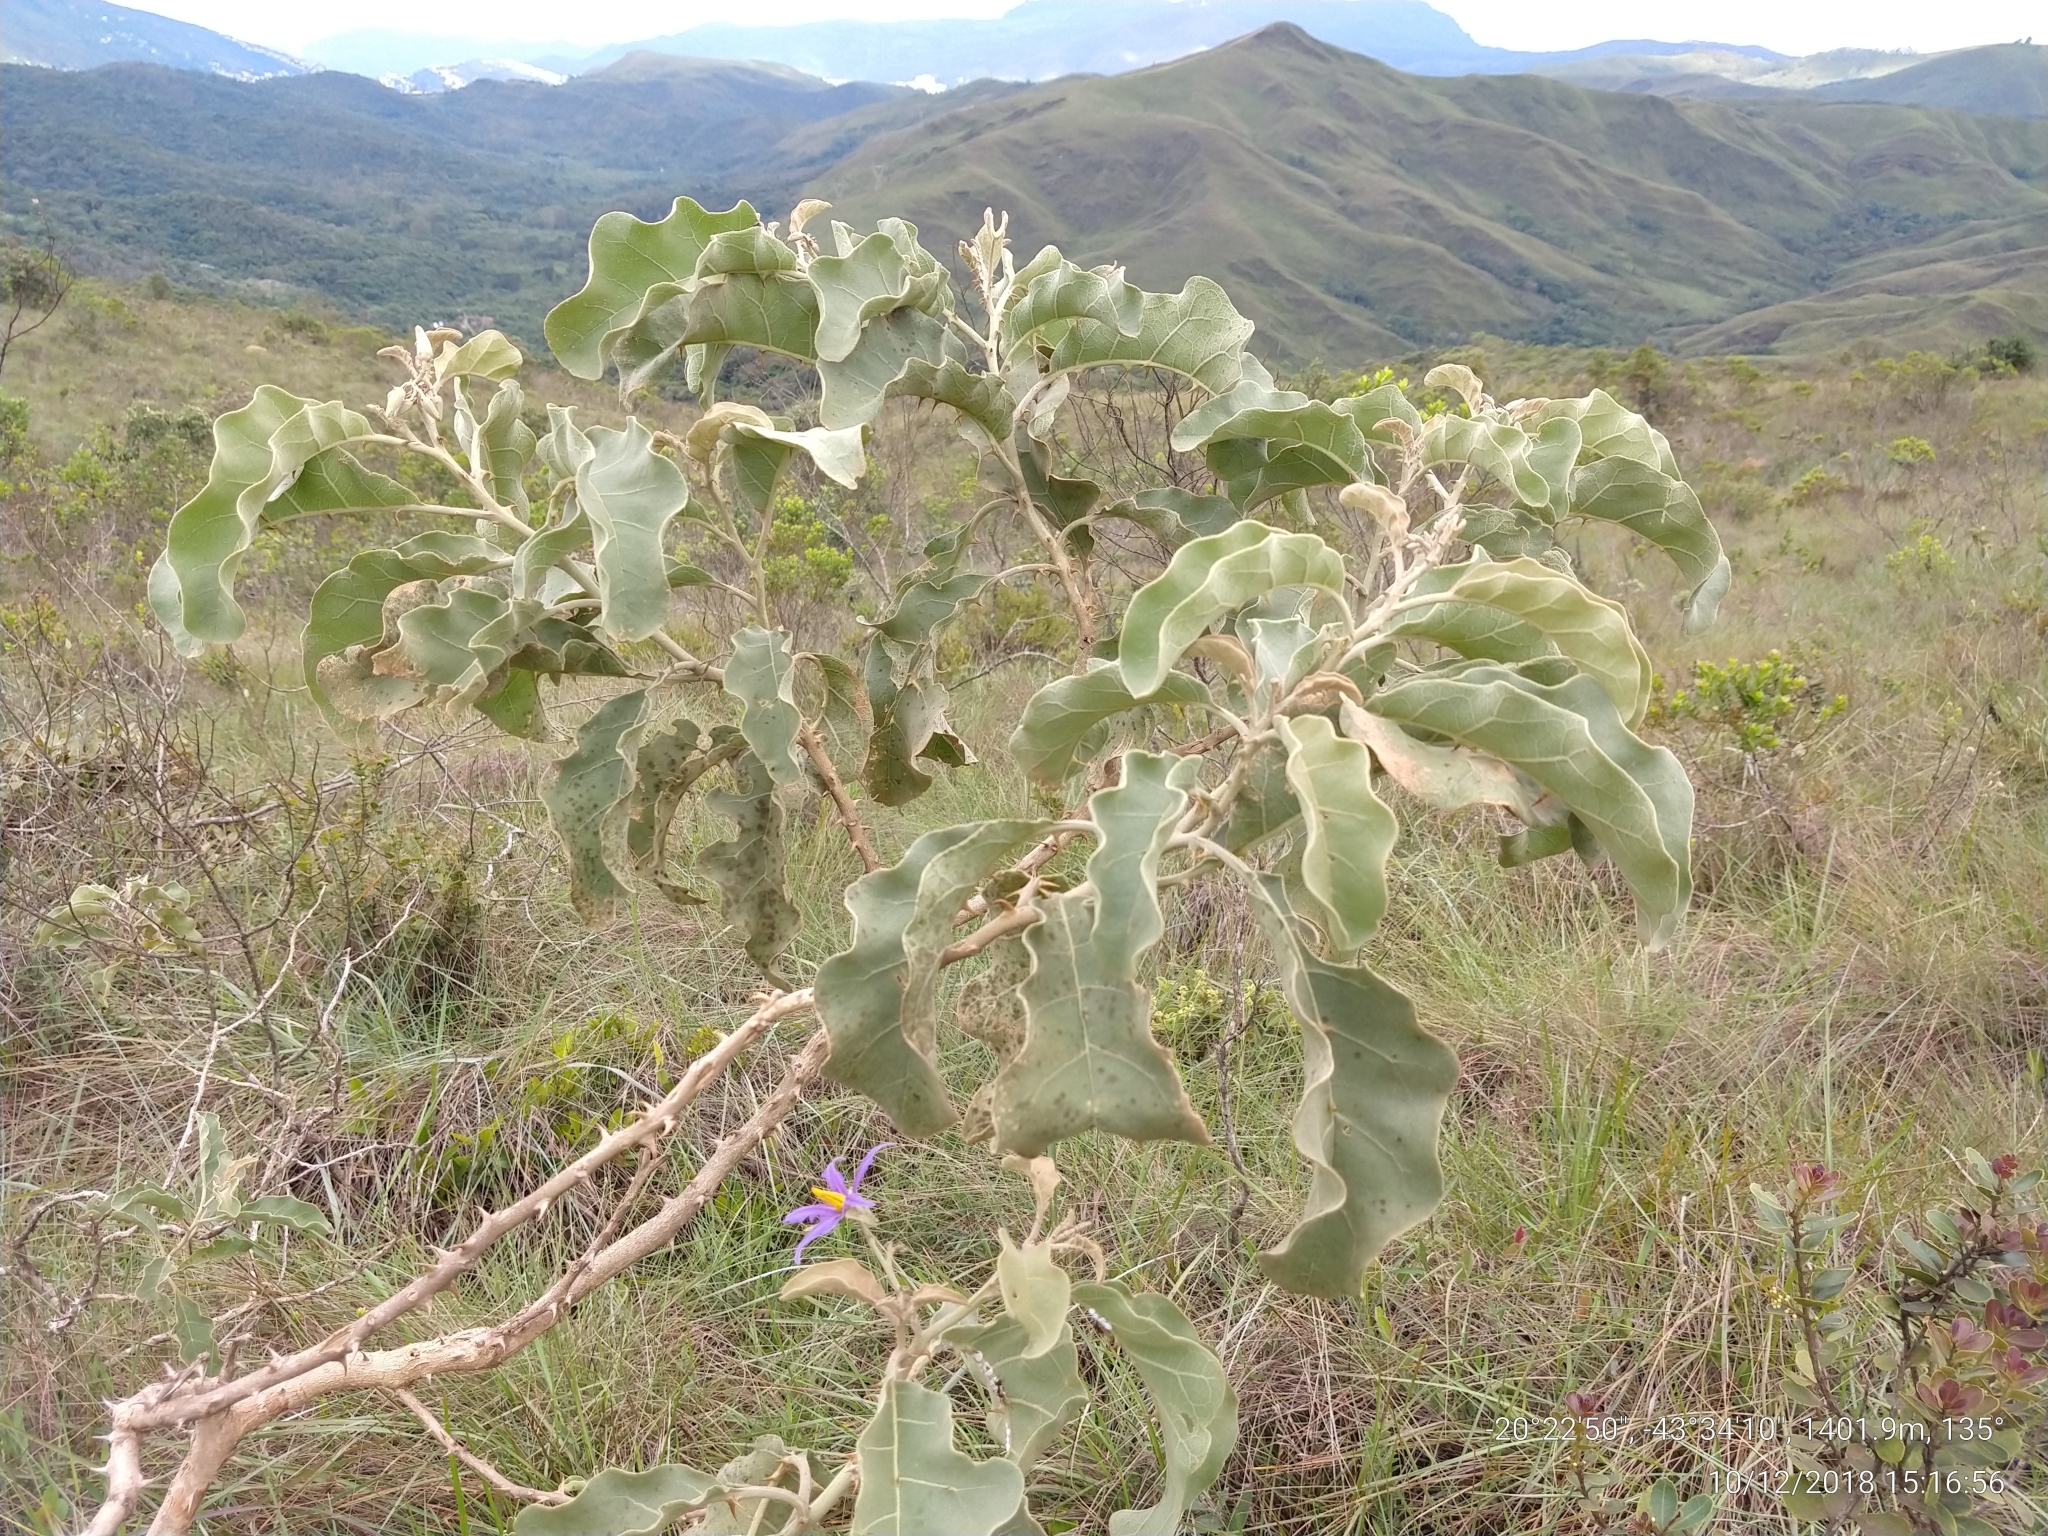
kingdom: Plantae
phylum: Tracheophyta
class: Magnoliopsida
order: Solanales
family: Solanaceae
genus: Solanum
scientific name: Solanum lycocarpum
